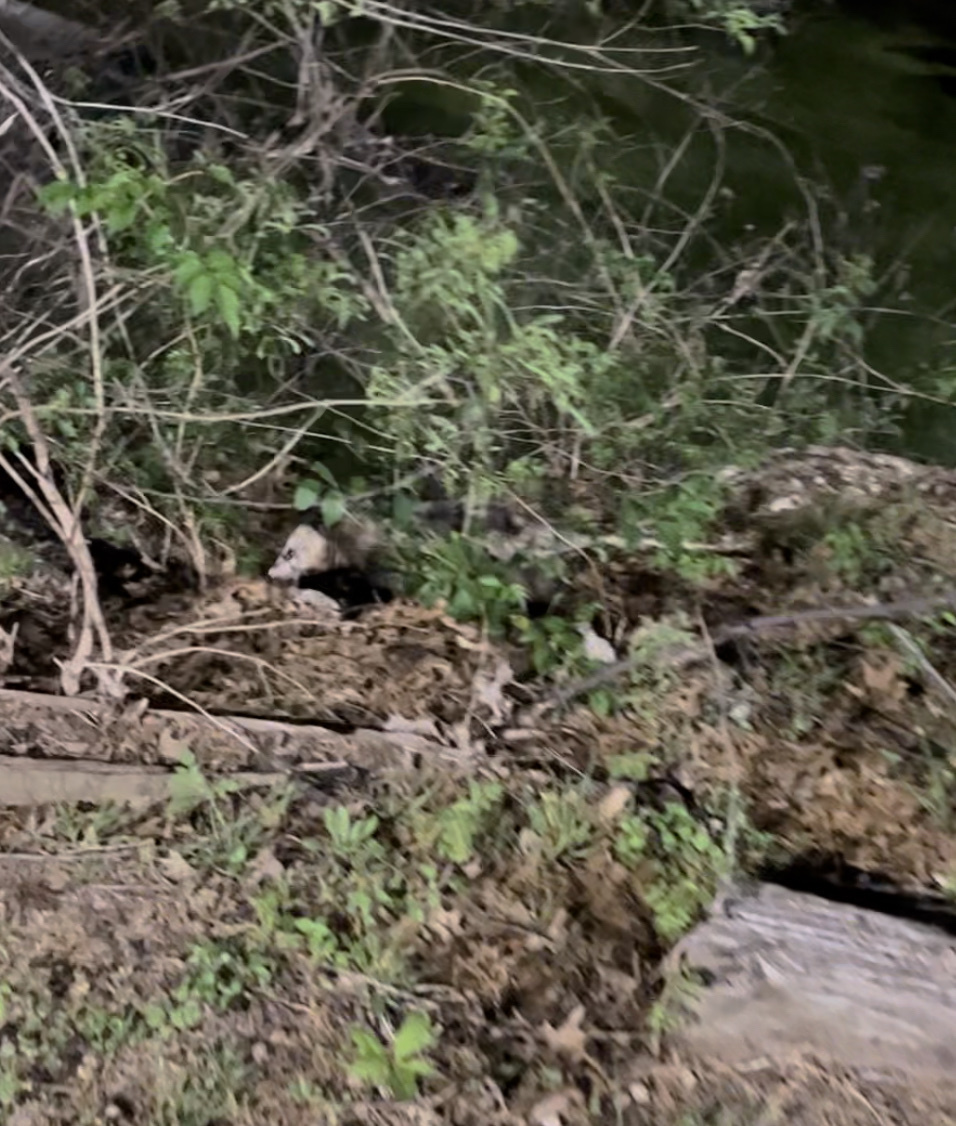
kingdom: Animalia
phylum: Chordata
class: Mammalia
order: Didelphimorphia
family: Didelphidae
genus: Didelphis
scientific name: Didelphis virginiana
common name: Virginia opossum
